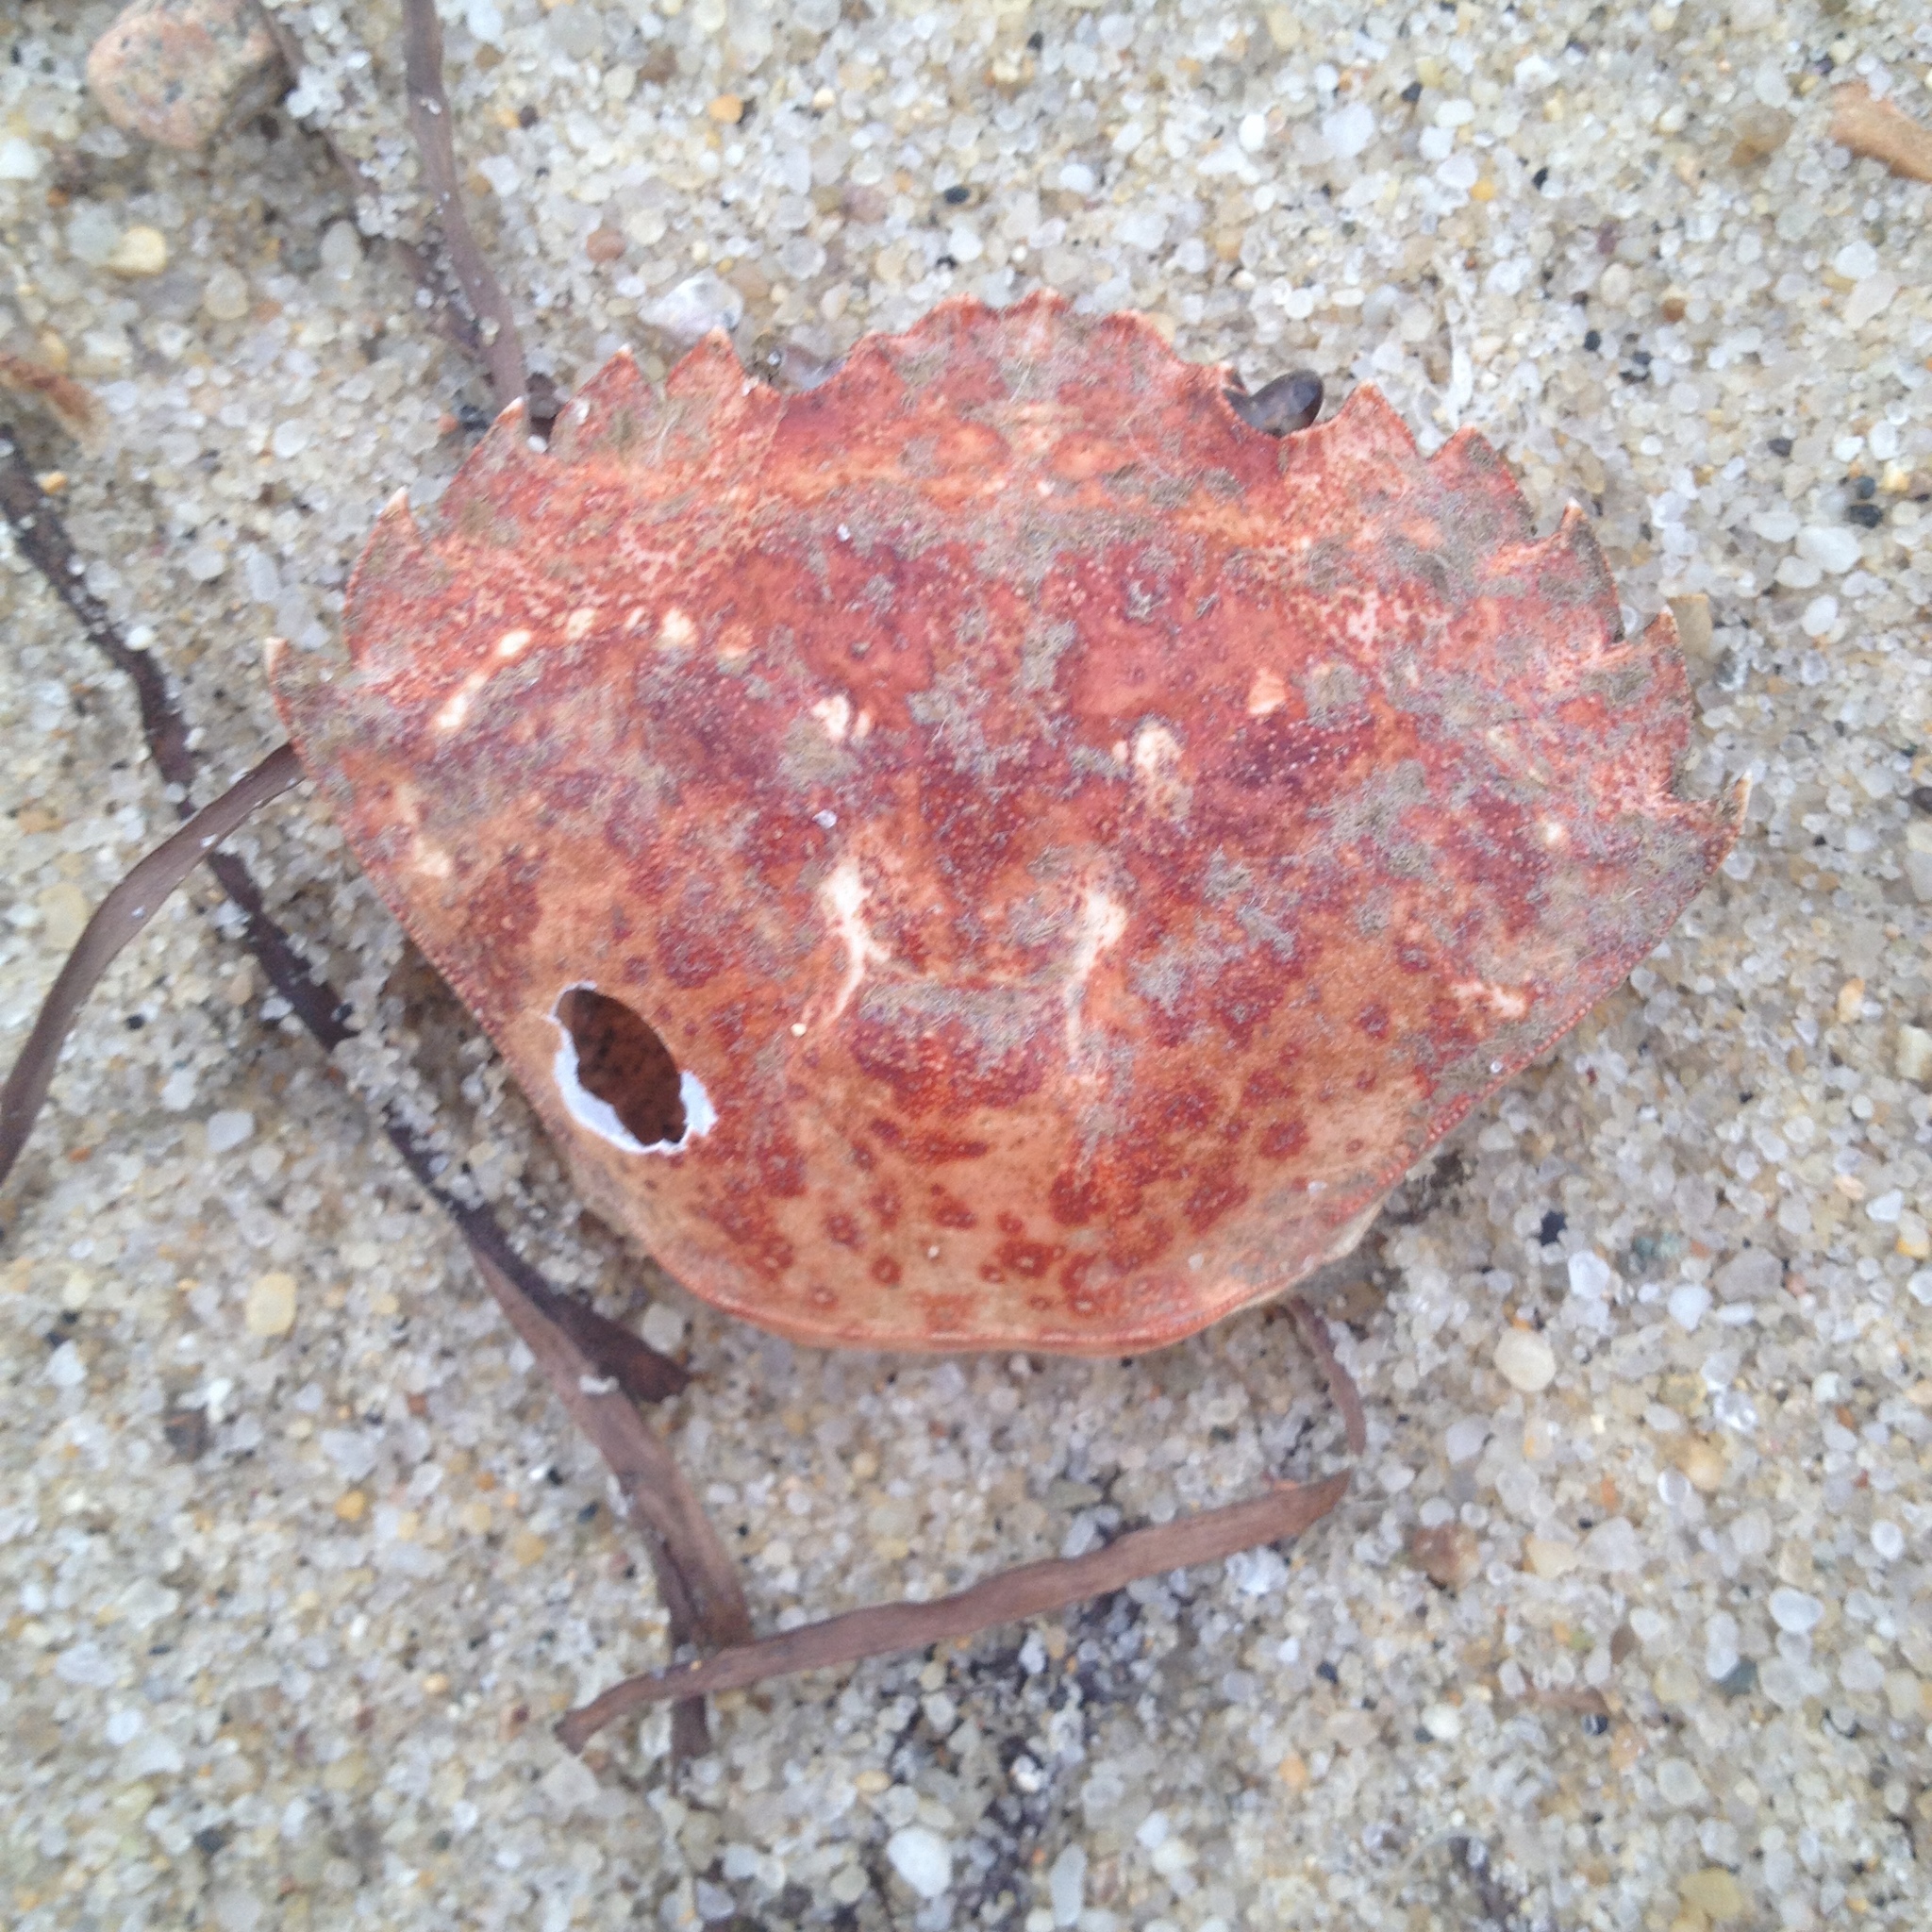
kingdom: Animalia
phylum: Arthropoda
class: Malacostraca
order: Decapoda
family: Carcinidae
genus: Carcinus
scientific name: Carcinus maenas
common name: European green crab
